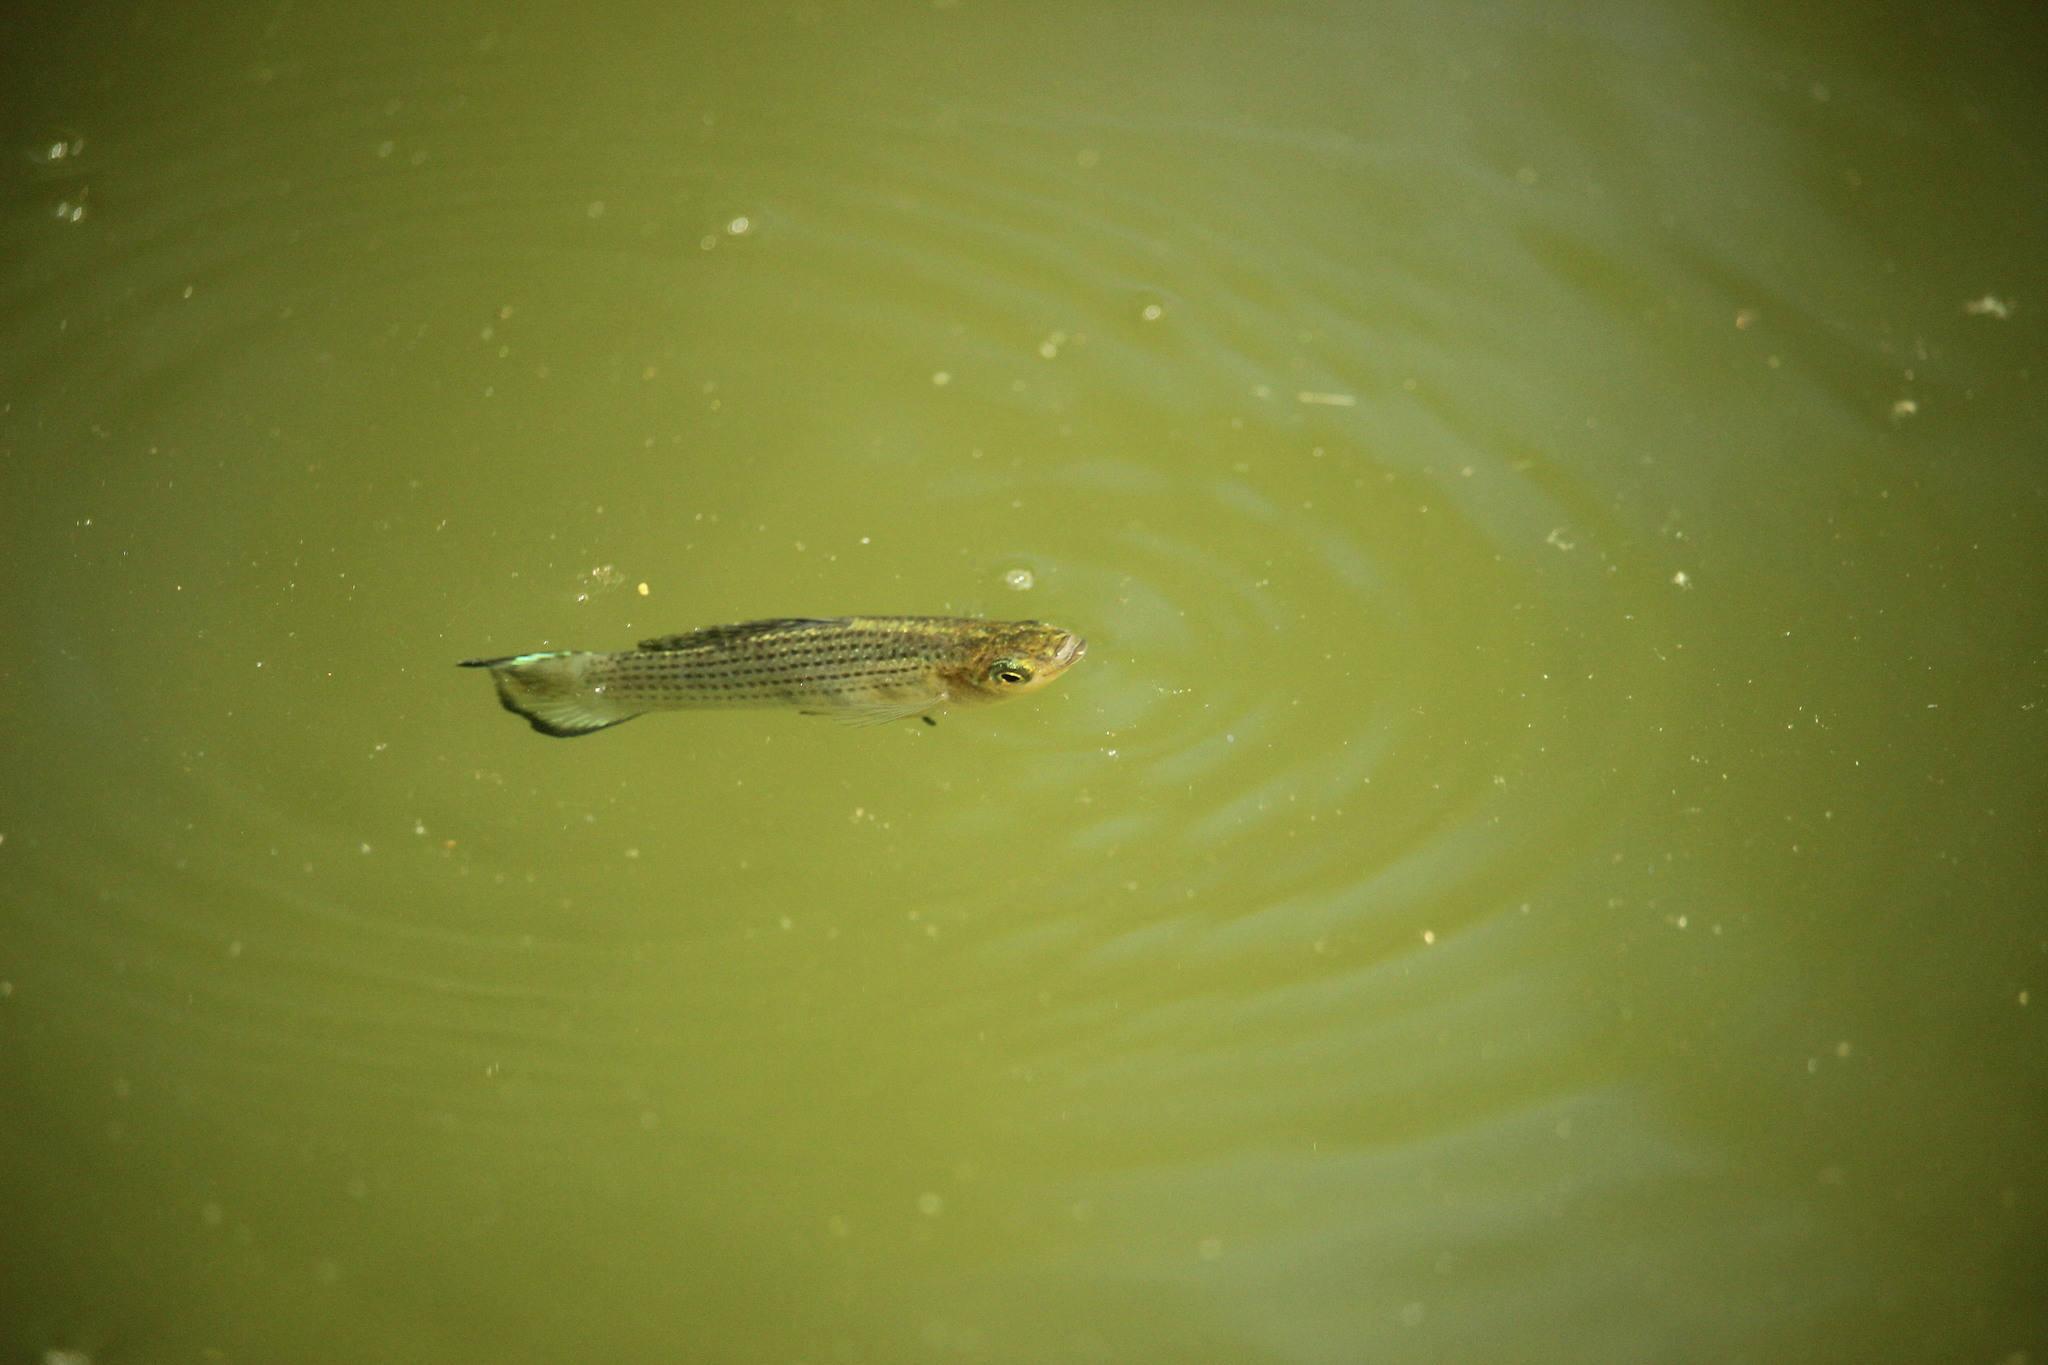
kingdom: Animalia
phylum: Chordata
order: Cyprinodontiformes
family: Poeciliidae
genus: Poecilia
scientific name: Poecilia latipinna
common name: Sailfin molly
